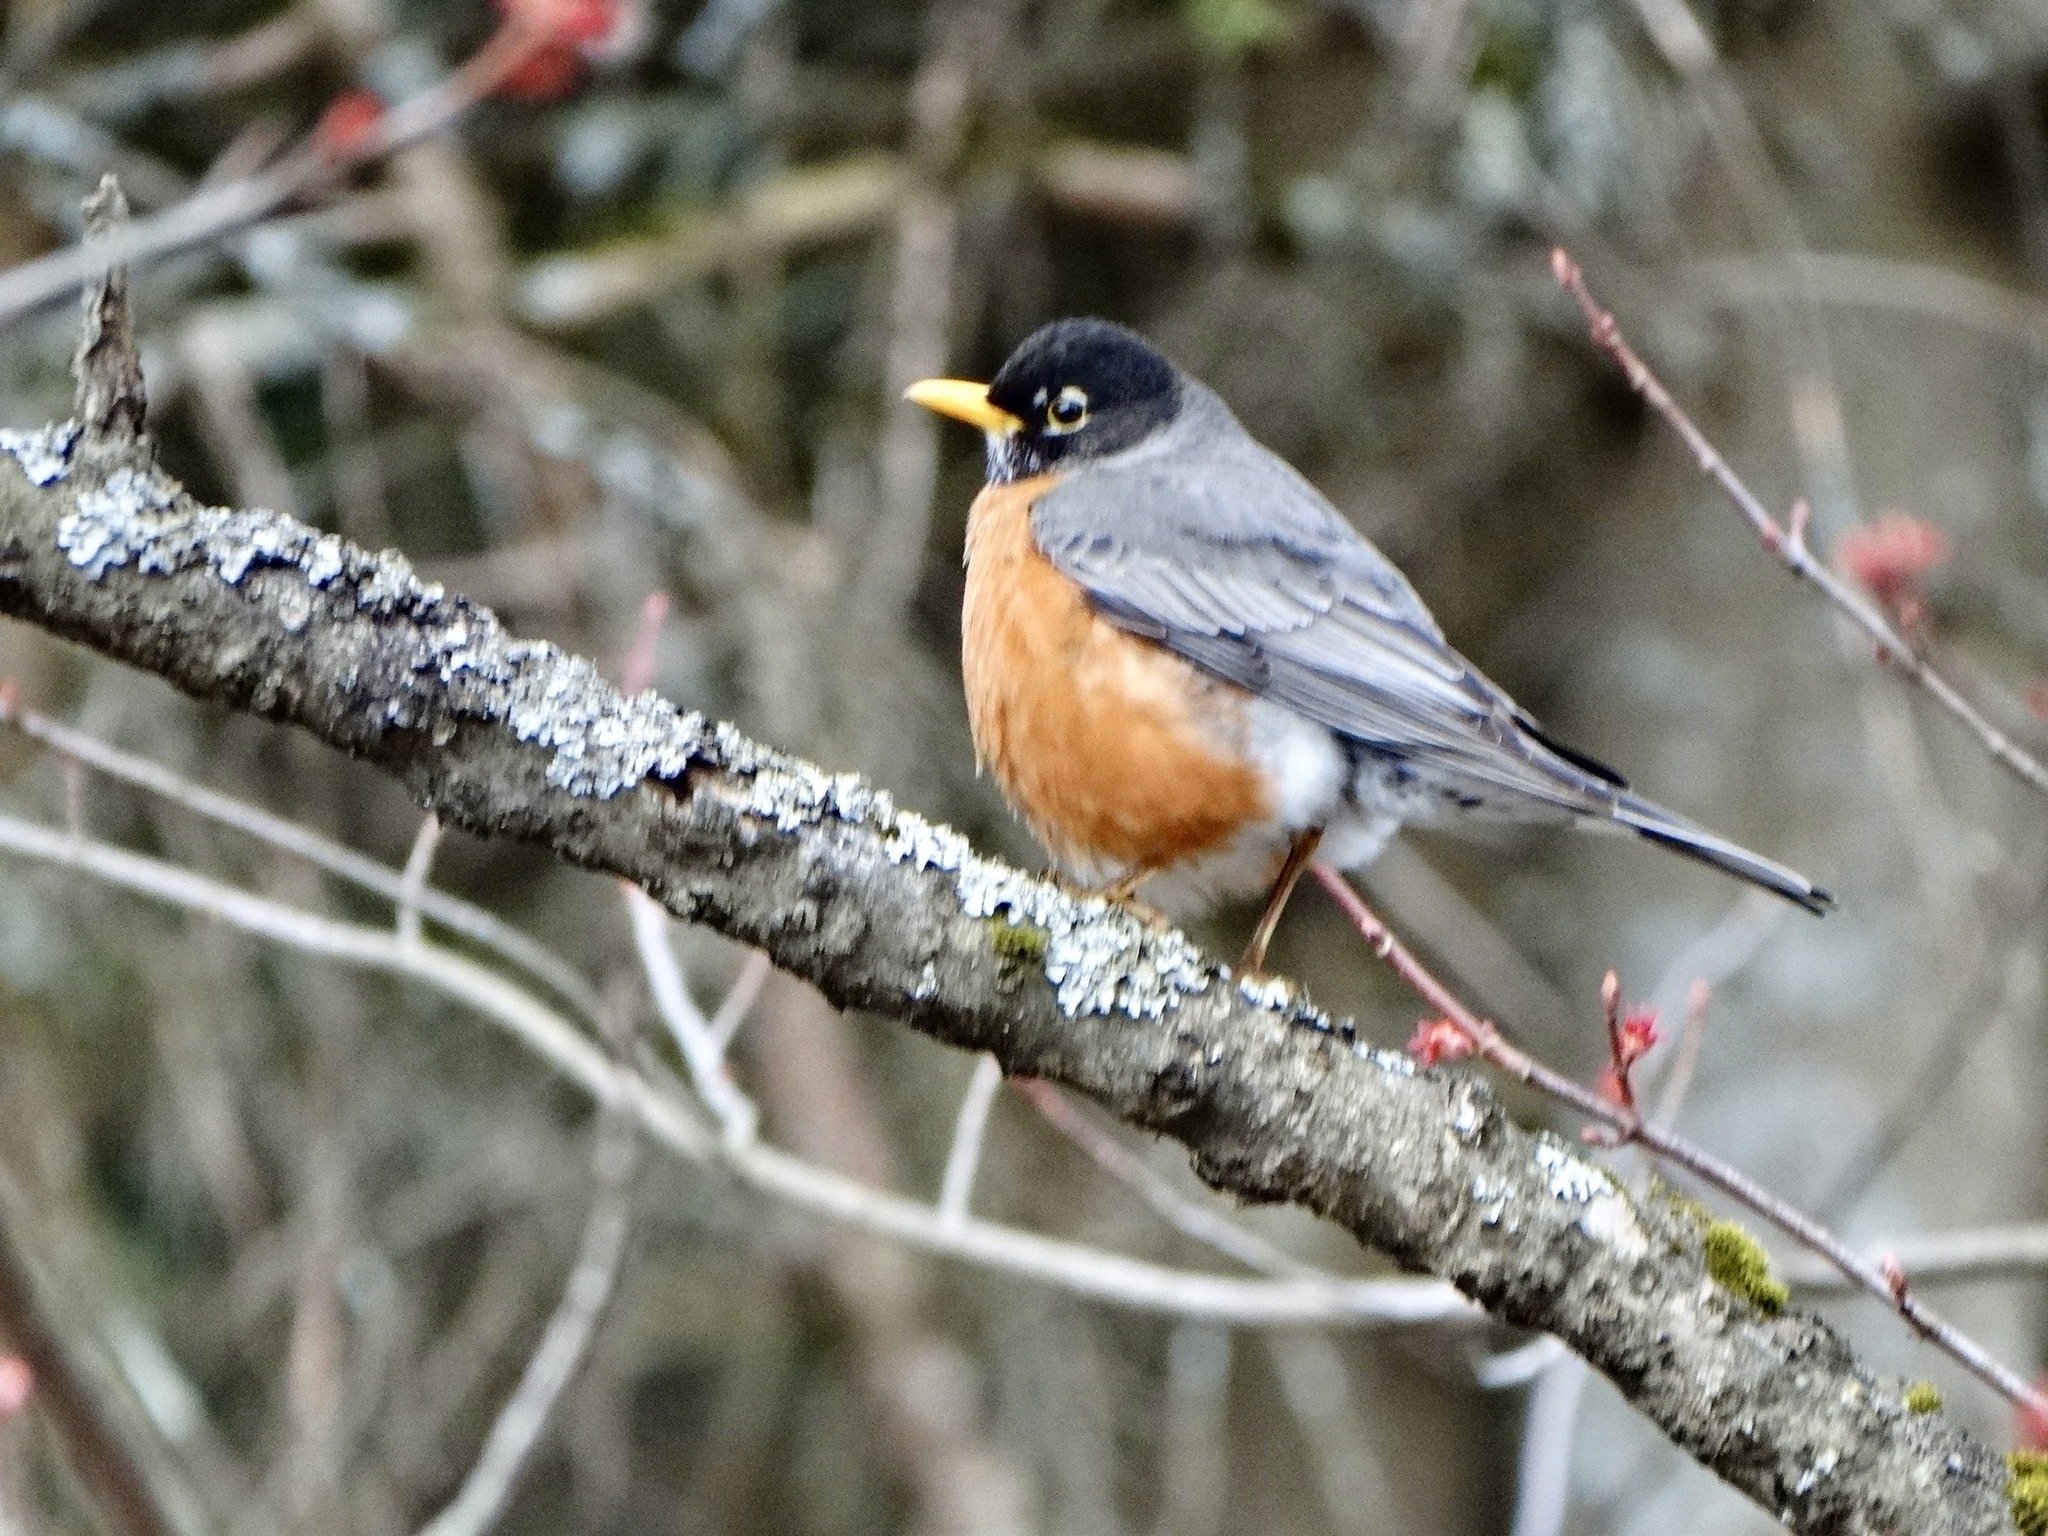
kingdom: Animalia
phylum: Chordata
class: Aves
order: Passeriformes
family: Turdidae
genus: Turdus
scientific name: Turdus migratorius
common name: American robin
